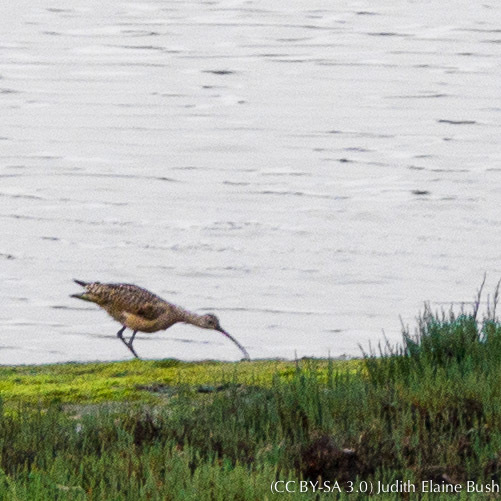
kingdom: Animalia
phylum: Chordata
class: Aves
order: Charadriiformes
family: Scolopacidae
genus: Numenius
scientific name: Numenius phaeopus
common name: Whimbrel
